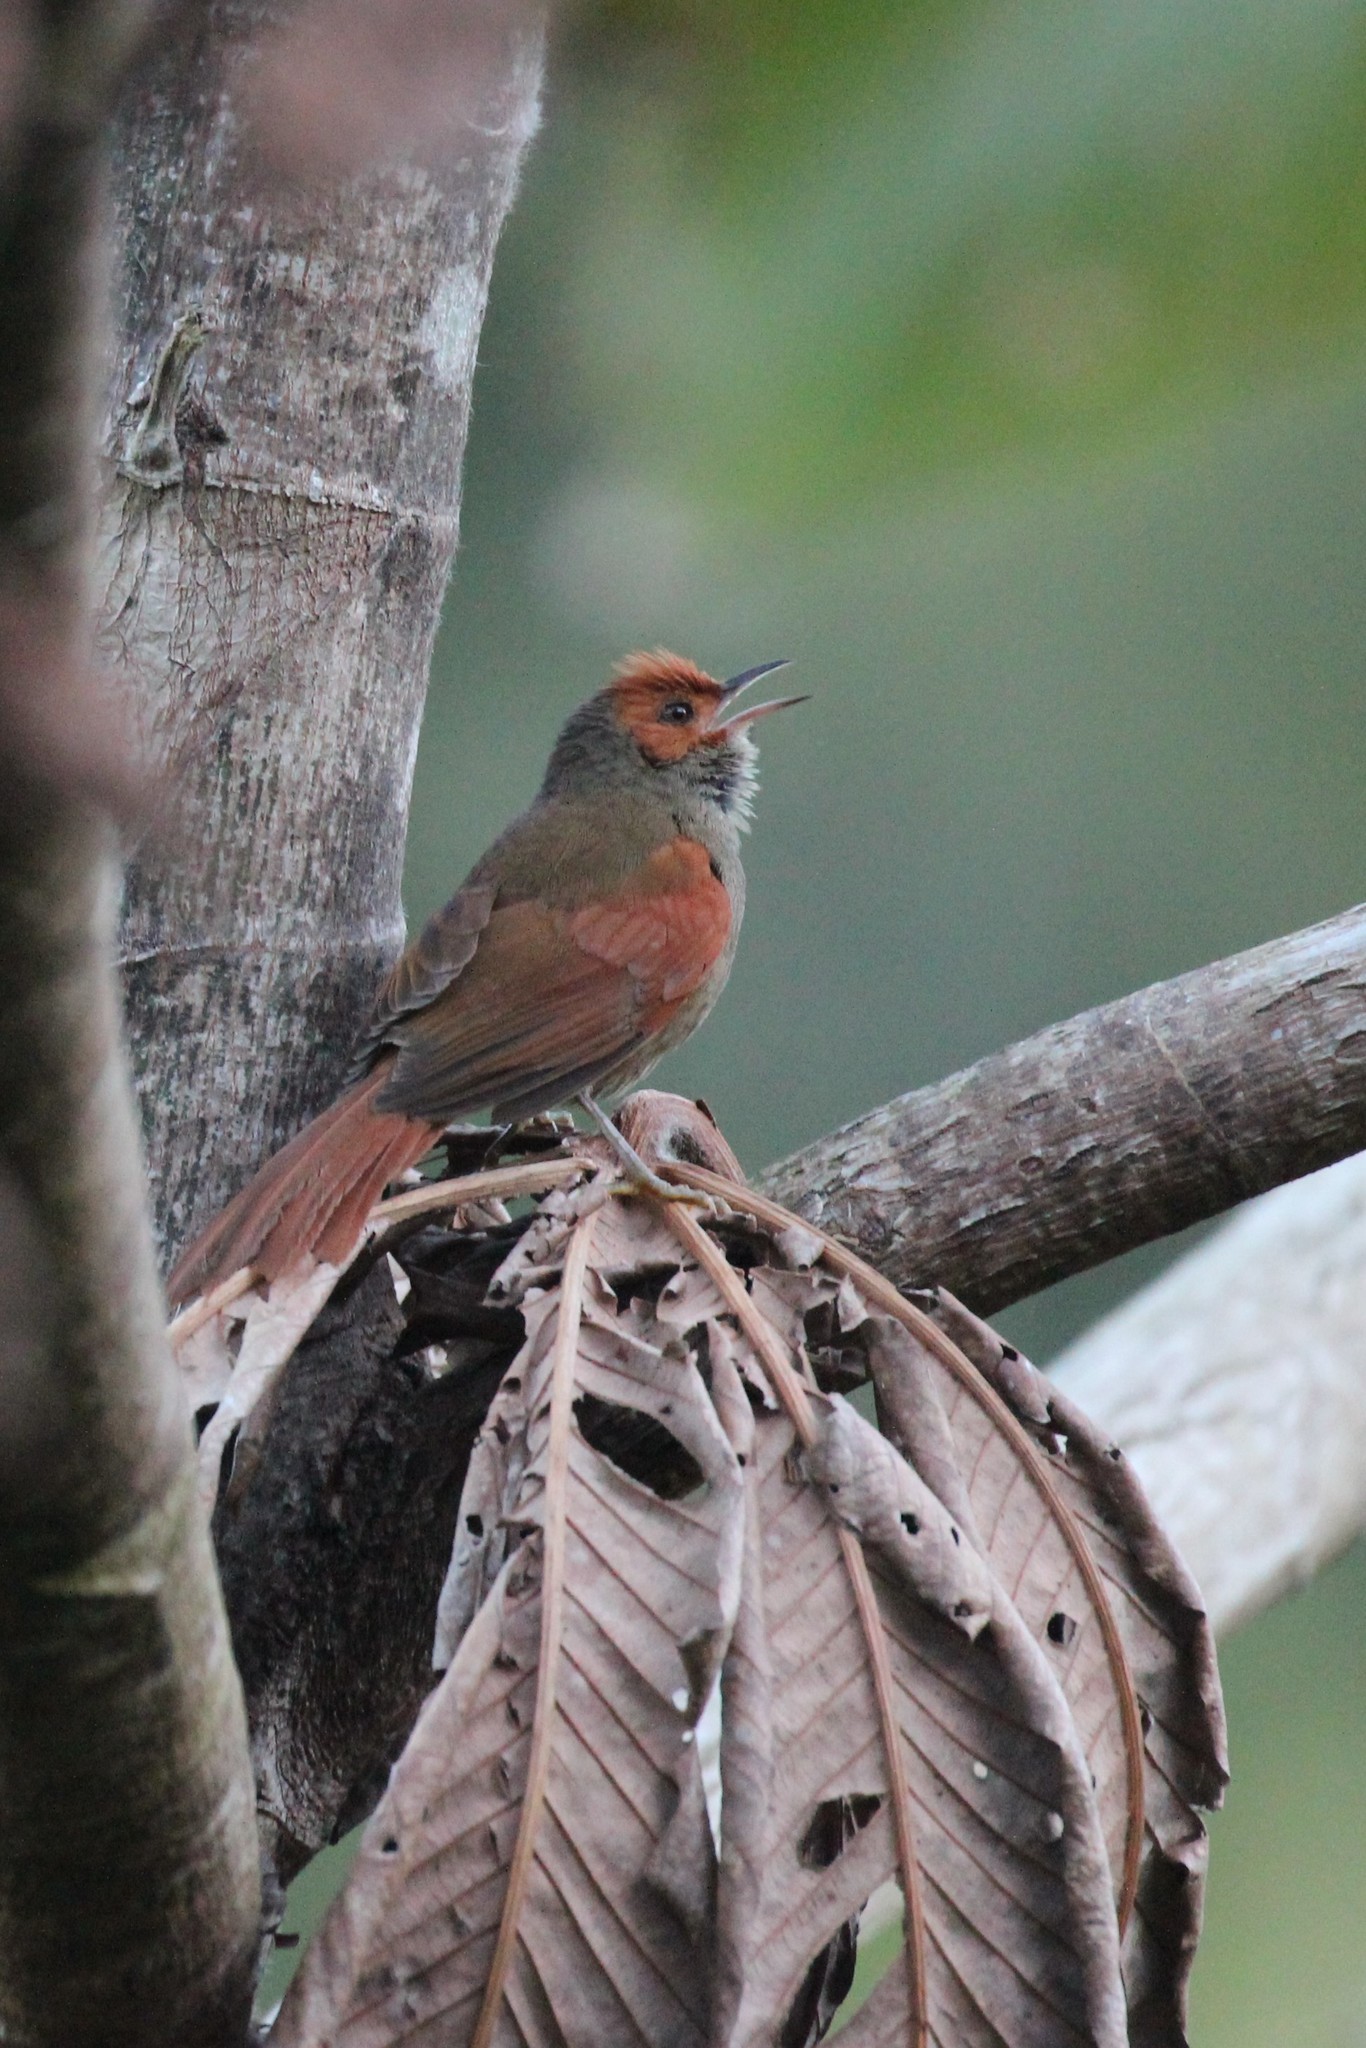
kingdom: Animalia
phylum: Chordata
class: Aves
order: Passeriformes
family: Furnariidae
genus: Cranioleuca
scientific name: Cranioleuca erythrops
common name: Red-faced spinetail
